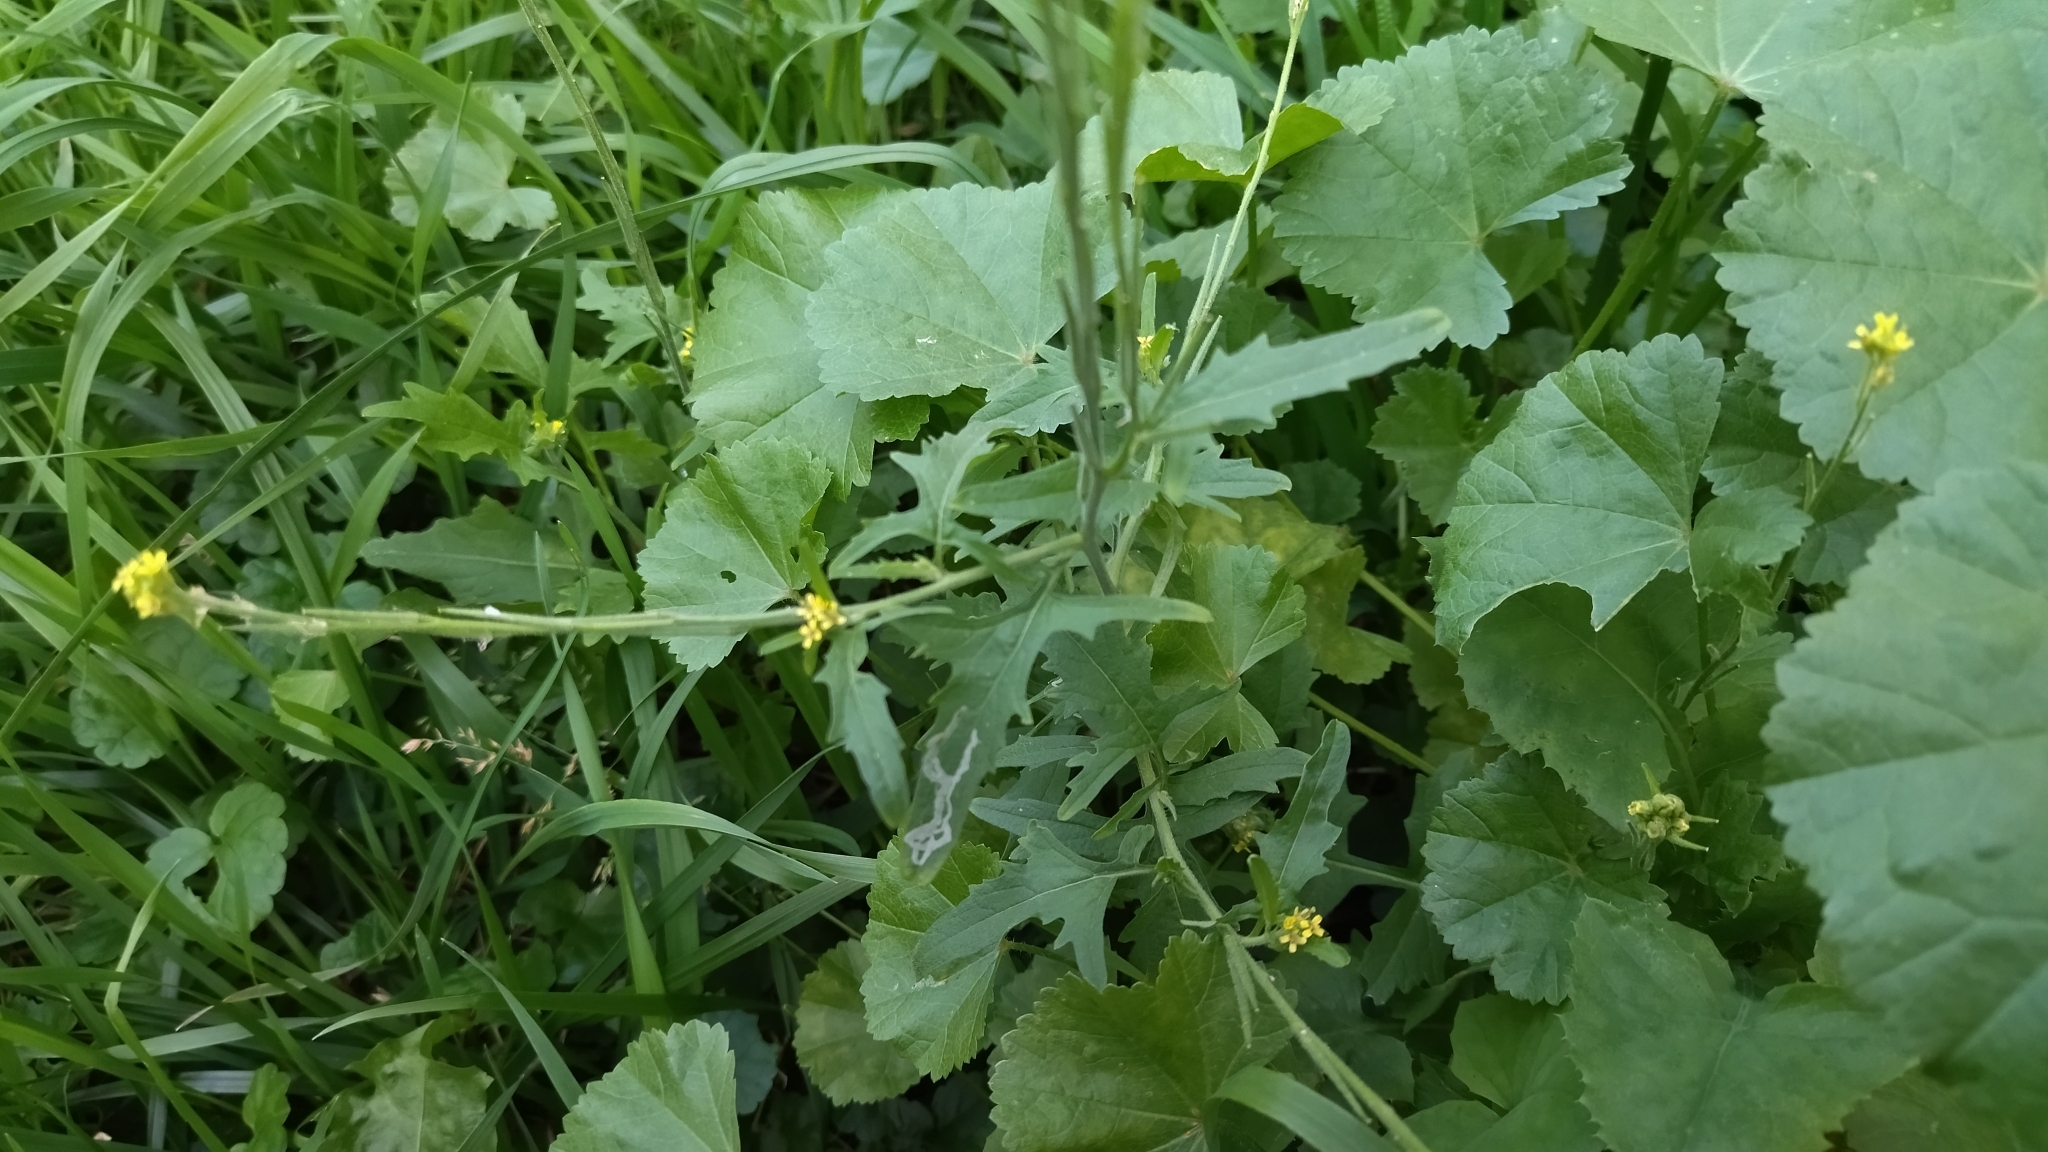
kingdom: Plantae
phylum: Tracheophyta
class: Magnoliopsida
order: Brassicales
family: Brassicaceae
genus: Sisymbrium
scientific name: Sisymbrium officinale
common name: Hedge mustard
